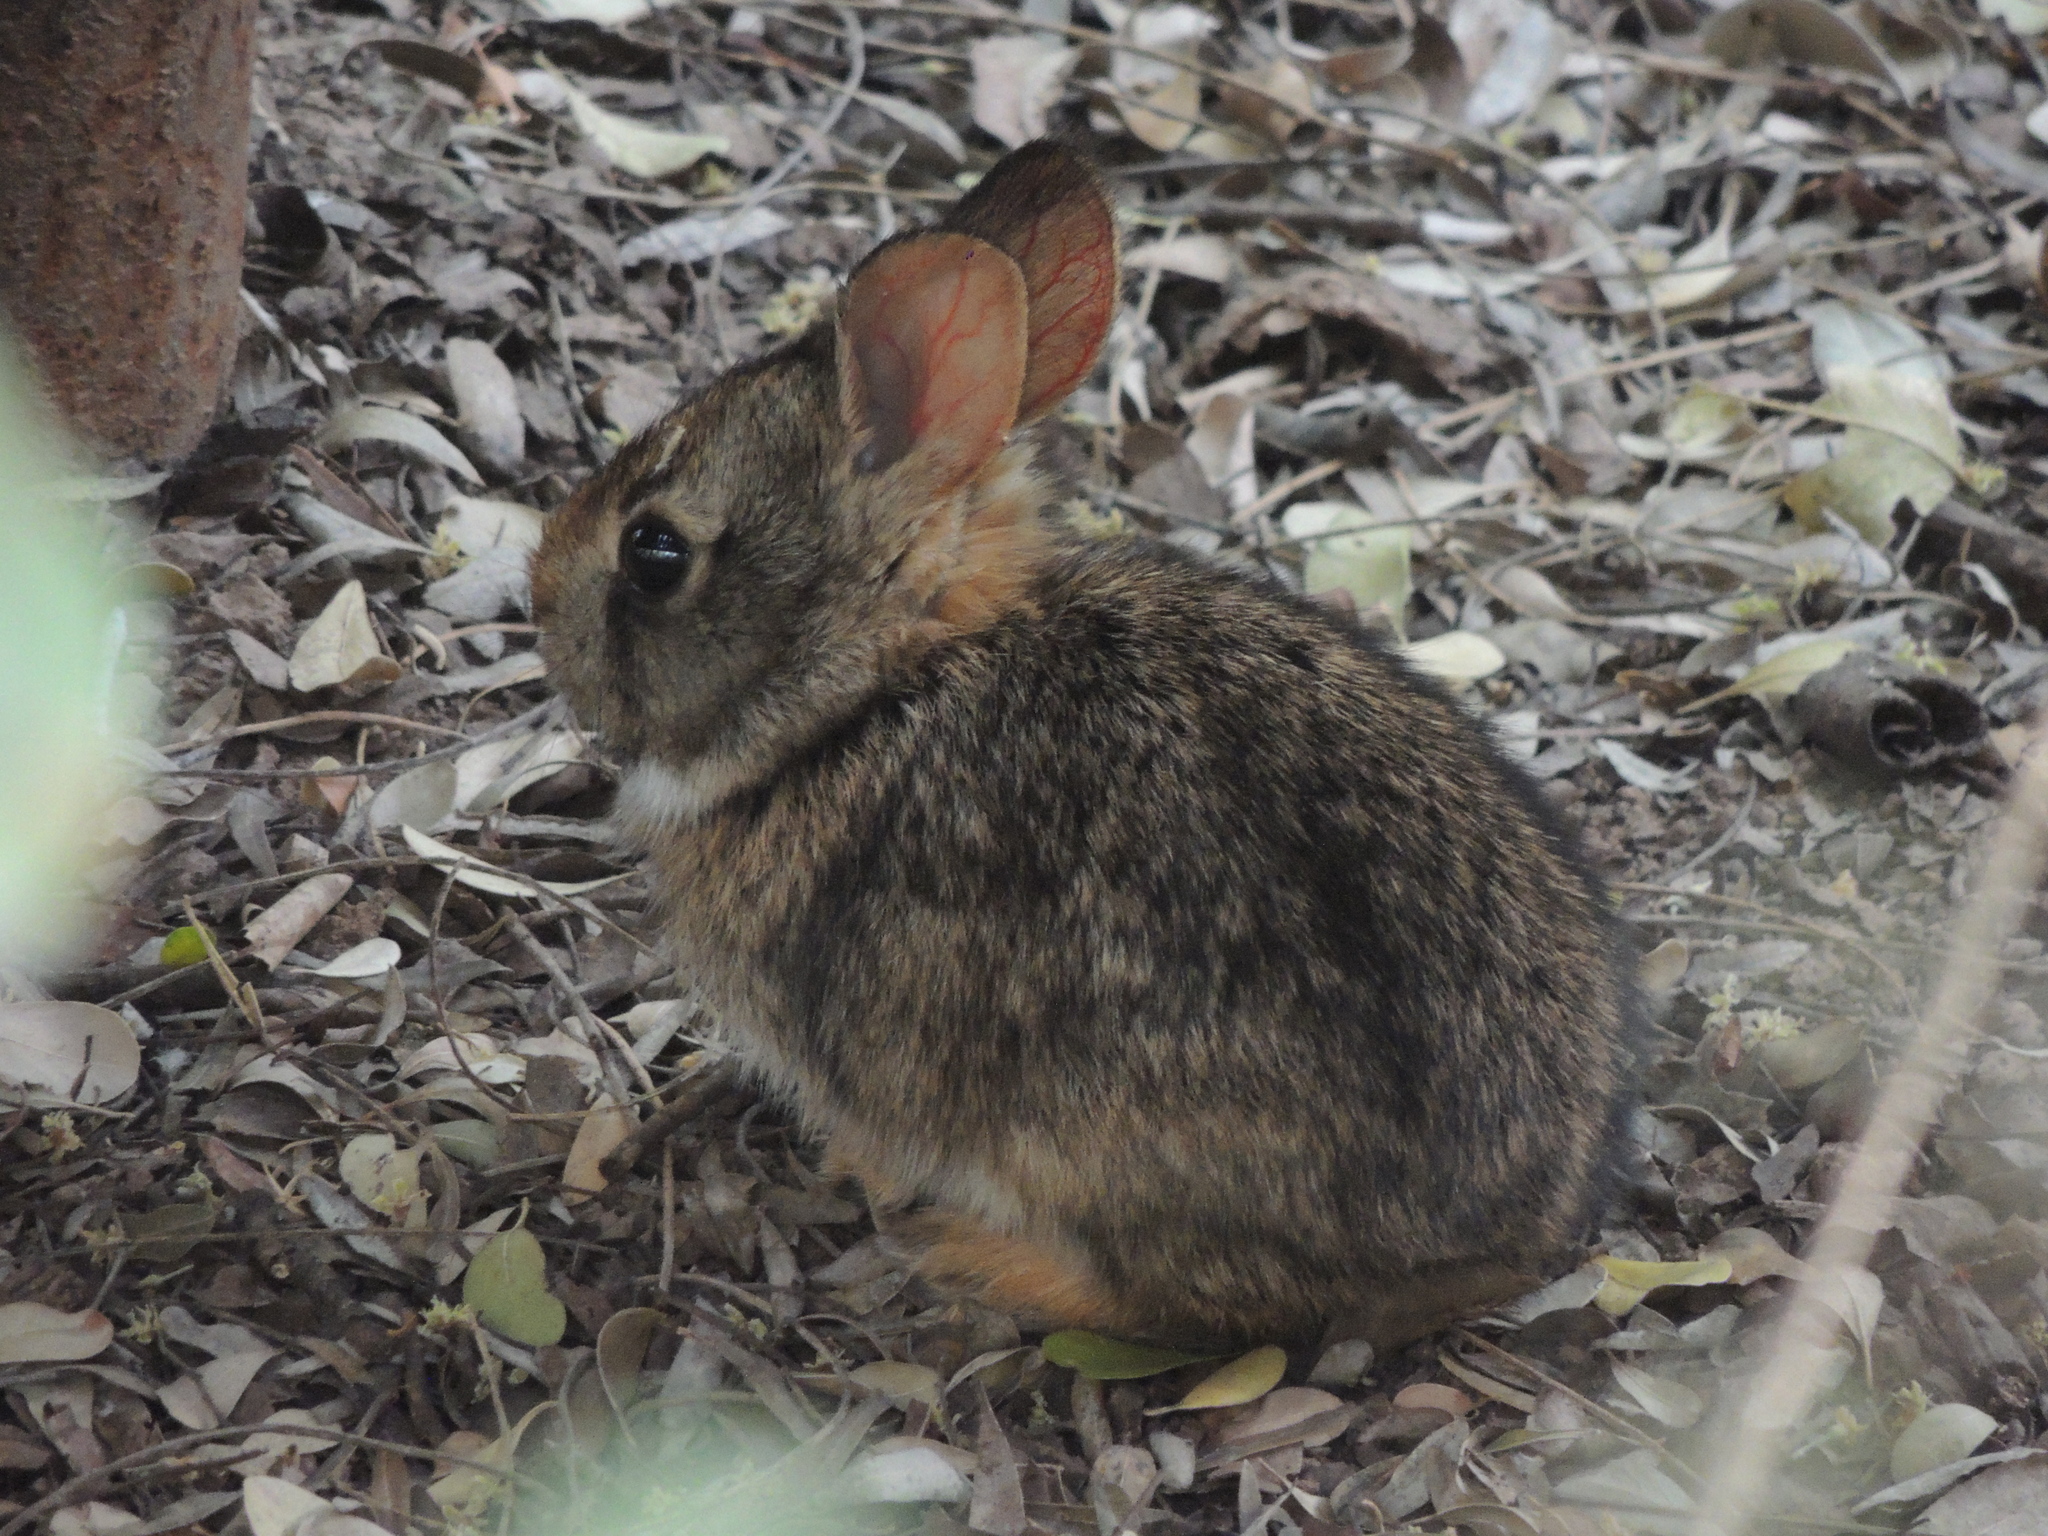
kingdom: Animalia
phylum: Chordata
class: Mammalia
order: Lagomorpha
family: Leporidae
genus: Sylvilagus
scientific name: Sylvilagus brasiliensis
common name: Tapeti
